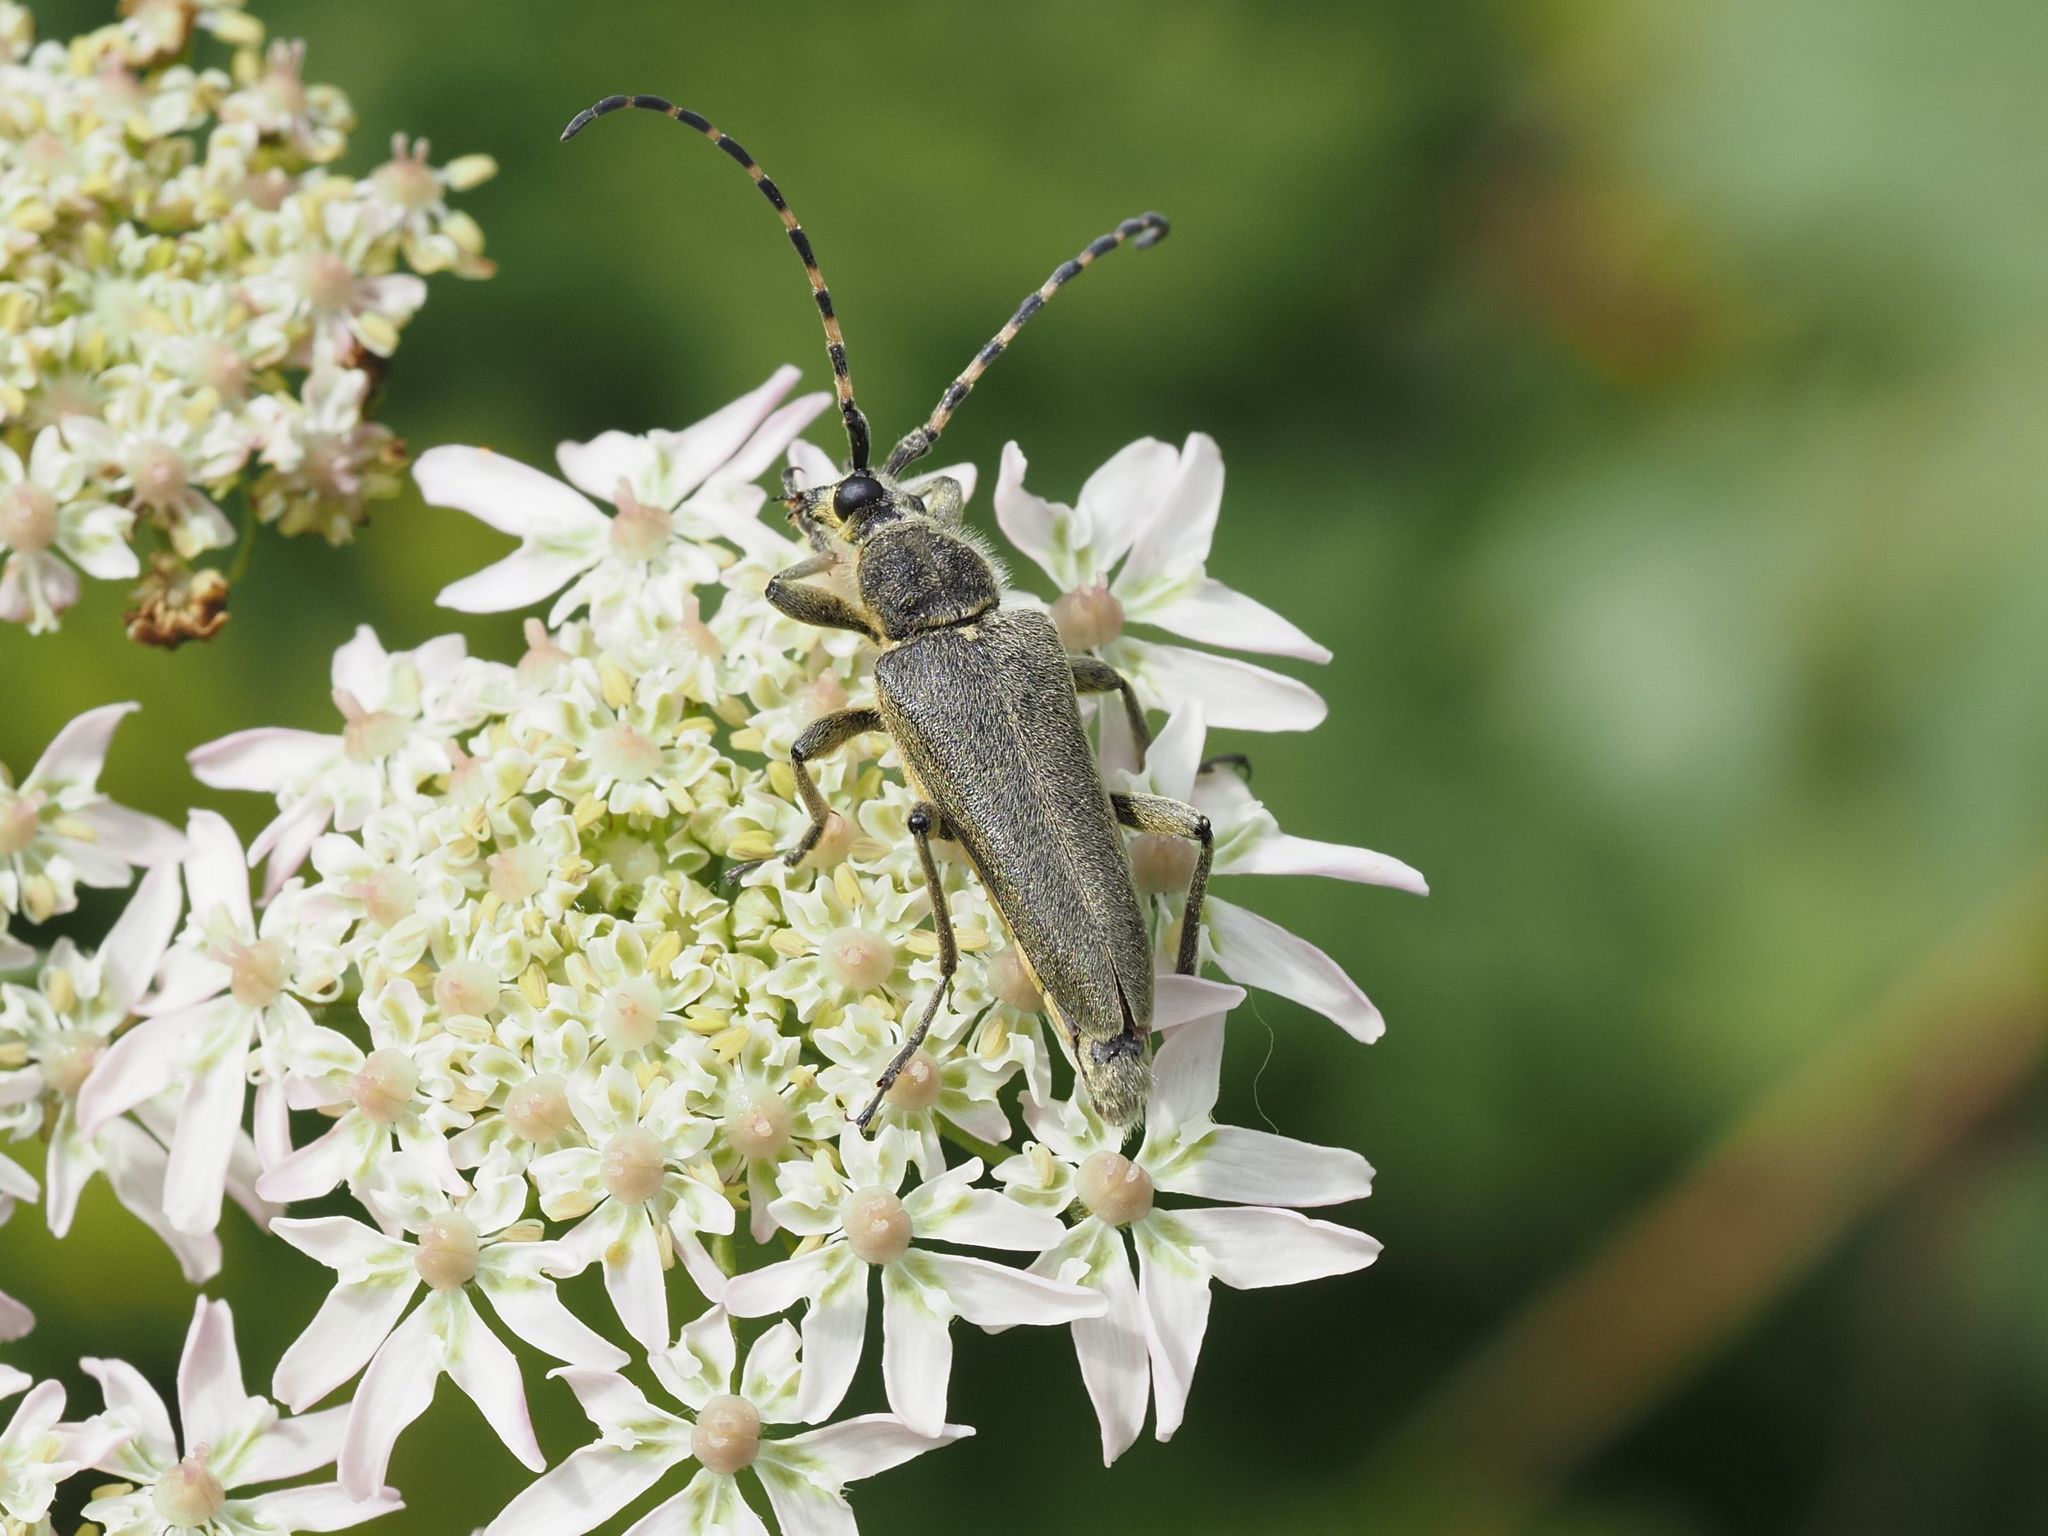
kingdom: Animalia
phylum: Arthropoda
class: Insecta
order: Coleoptera
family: Cerambycidae
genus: Lepturobosca
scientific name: Lepturobosca virens
